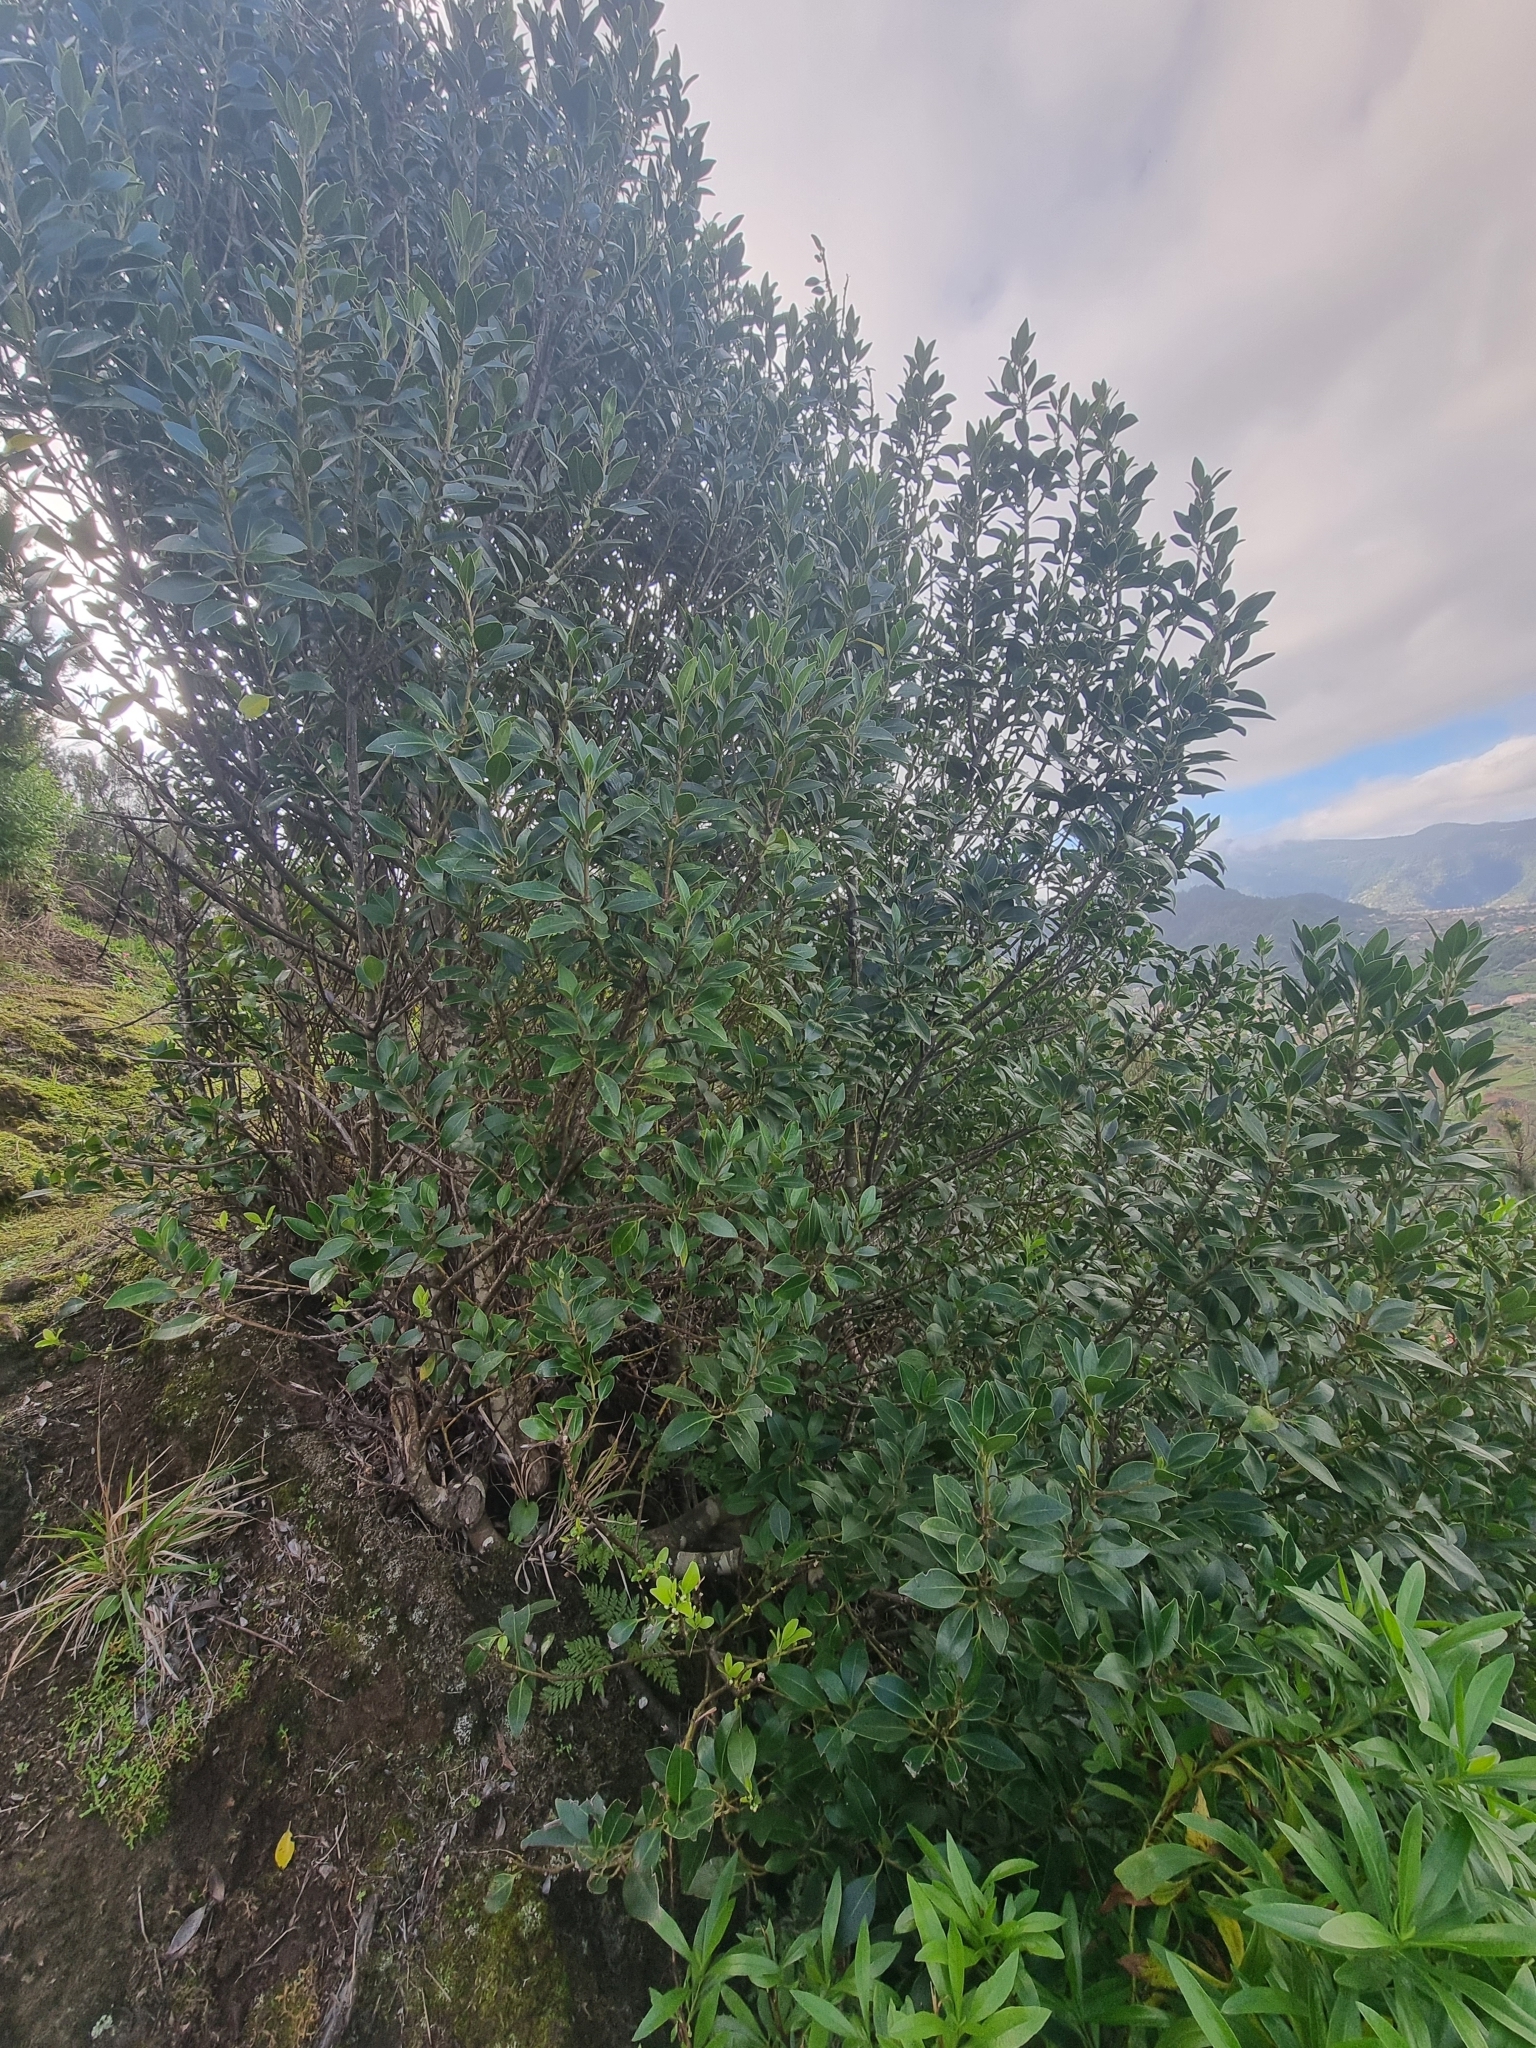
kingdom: Plantae
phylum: Tracheophyta
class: Magnoliopsida
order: Aquifoliales
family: Aquifoliaceae
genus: Ilex
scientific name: Ilex canariensis
